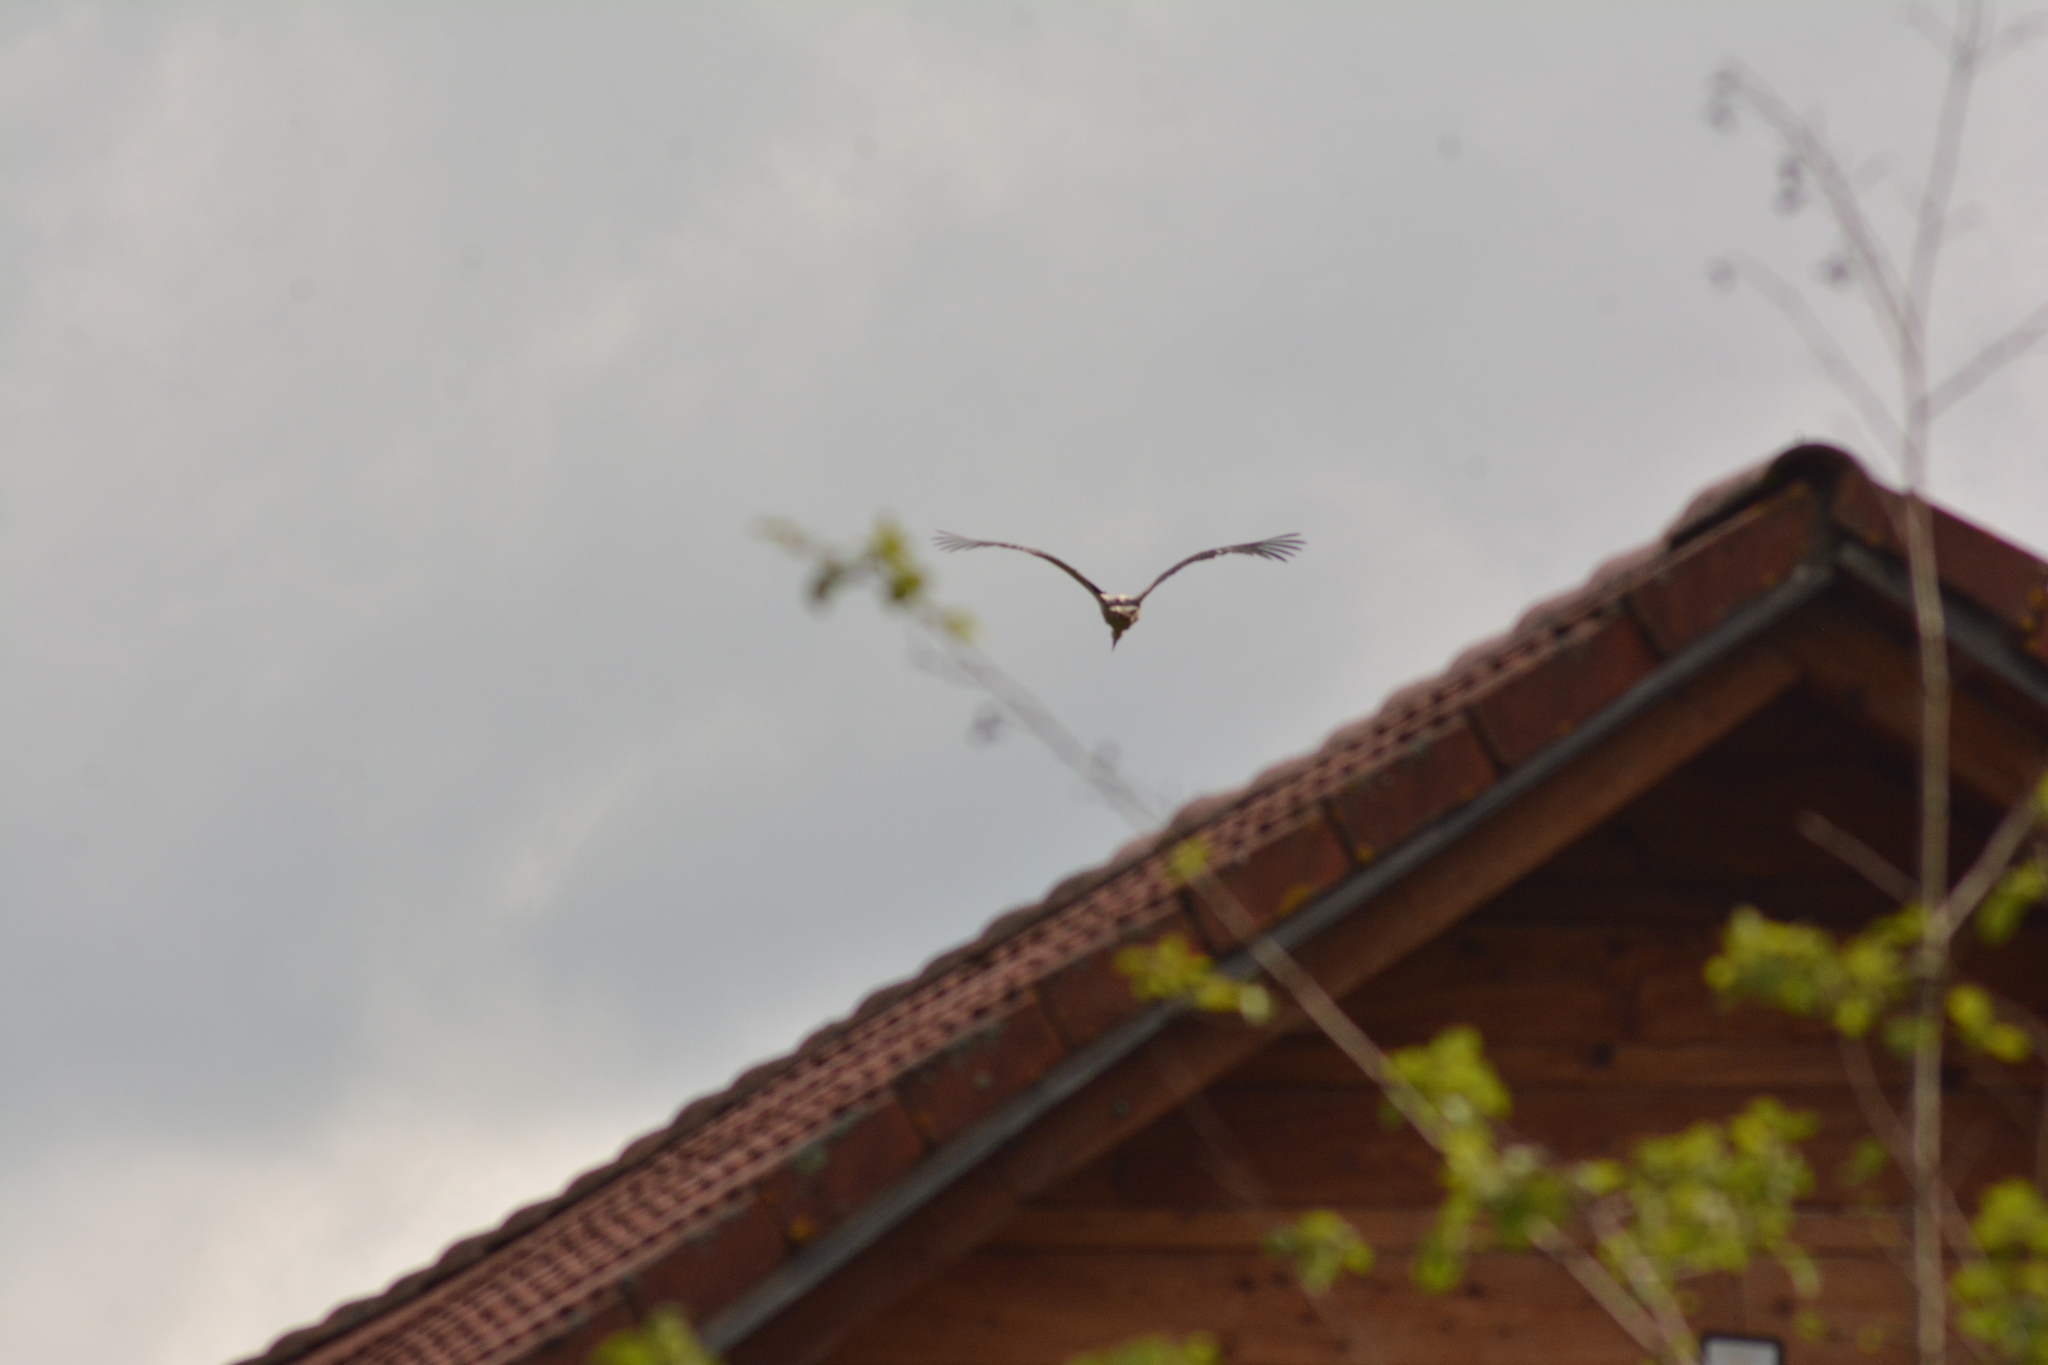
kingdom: Animalia
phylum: Chordata
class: Aves
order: Ciconiiformes
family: Ciconiidae
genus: Ciconia
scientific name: Ciconia ciconia
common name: White stork
